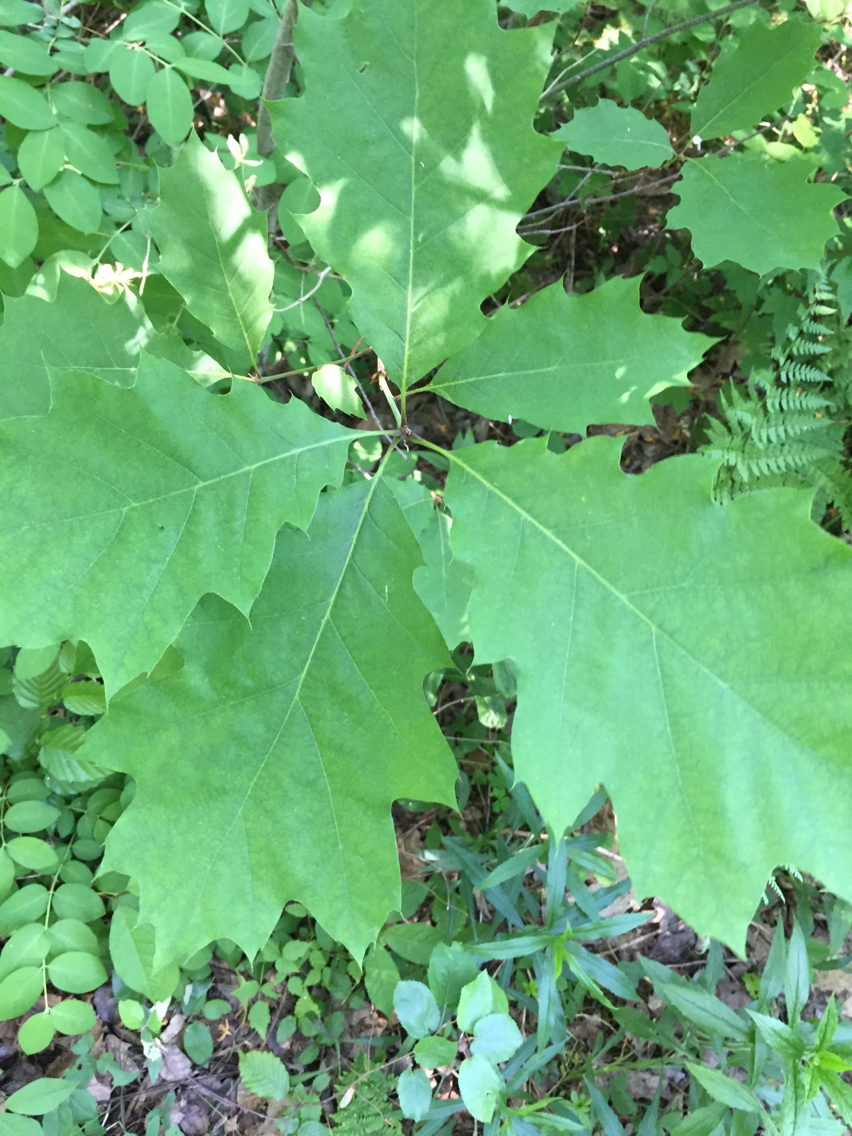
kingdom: Plantae
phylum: Tracheophyta
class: Magnoliopsida
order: Fagales
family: Fagaceae
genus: Quercus
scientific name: Quercus rubra
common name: Red oak
